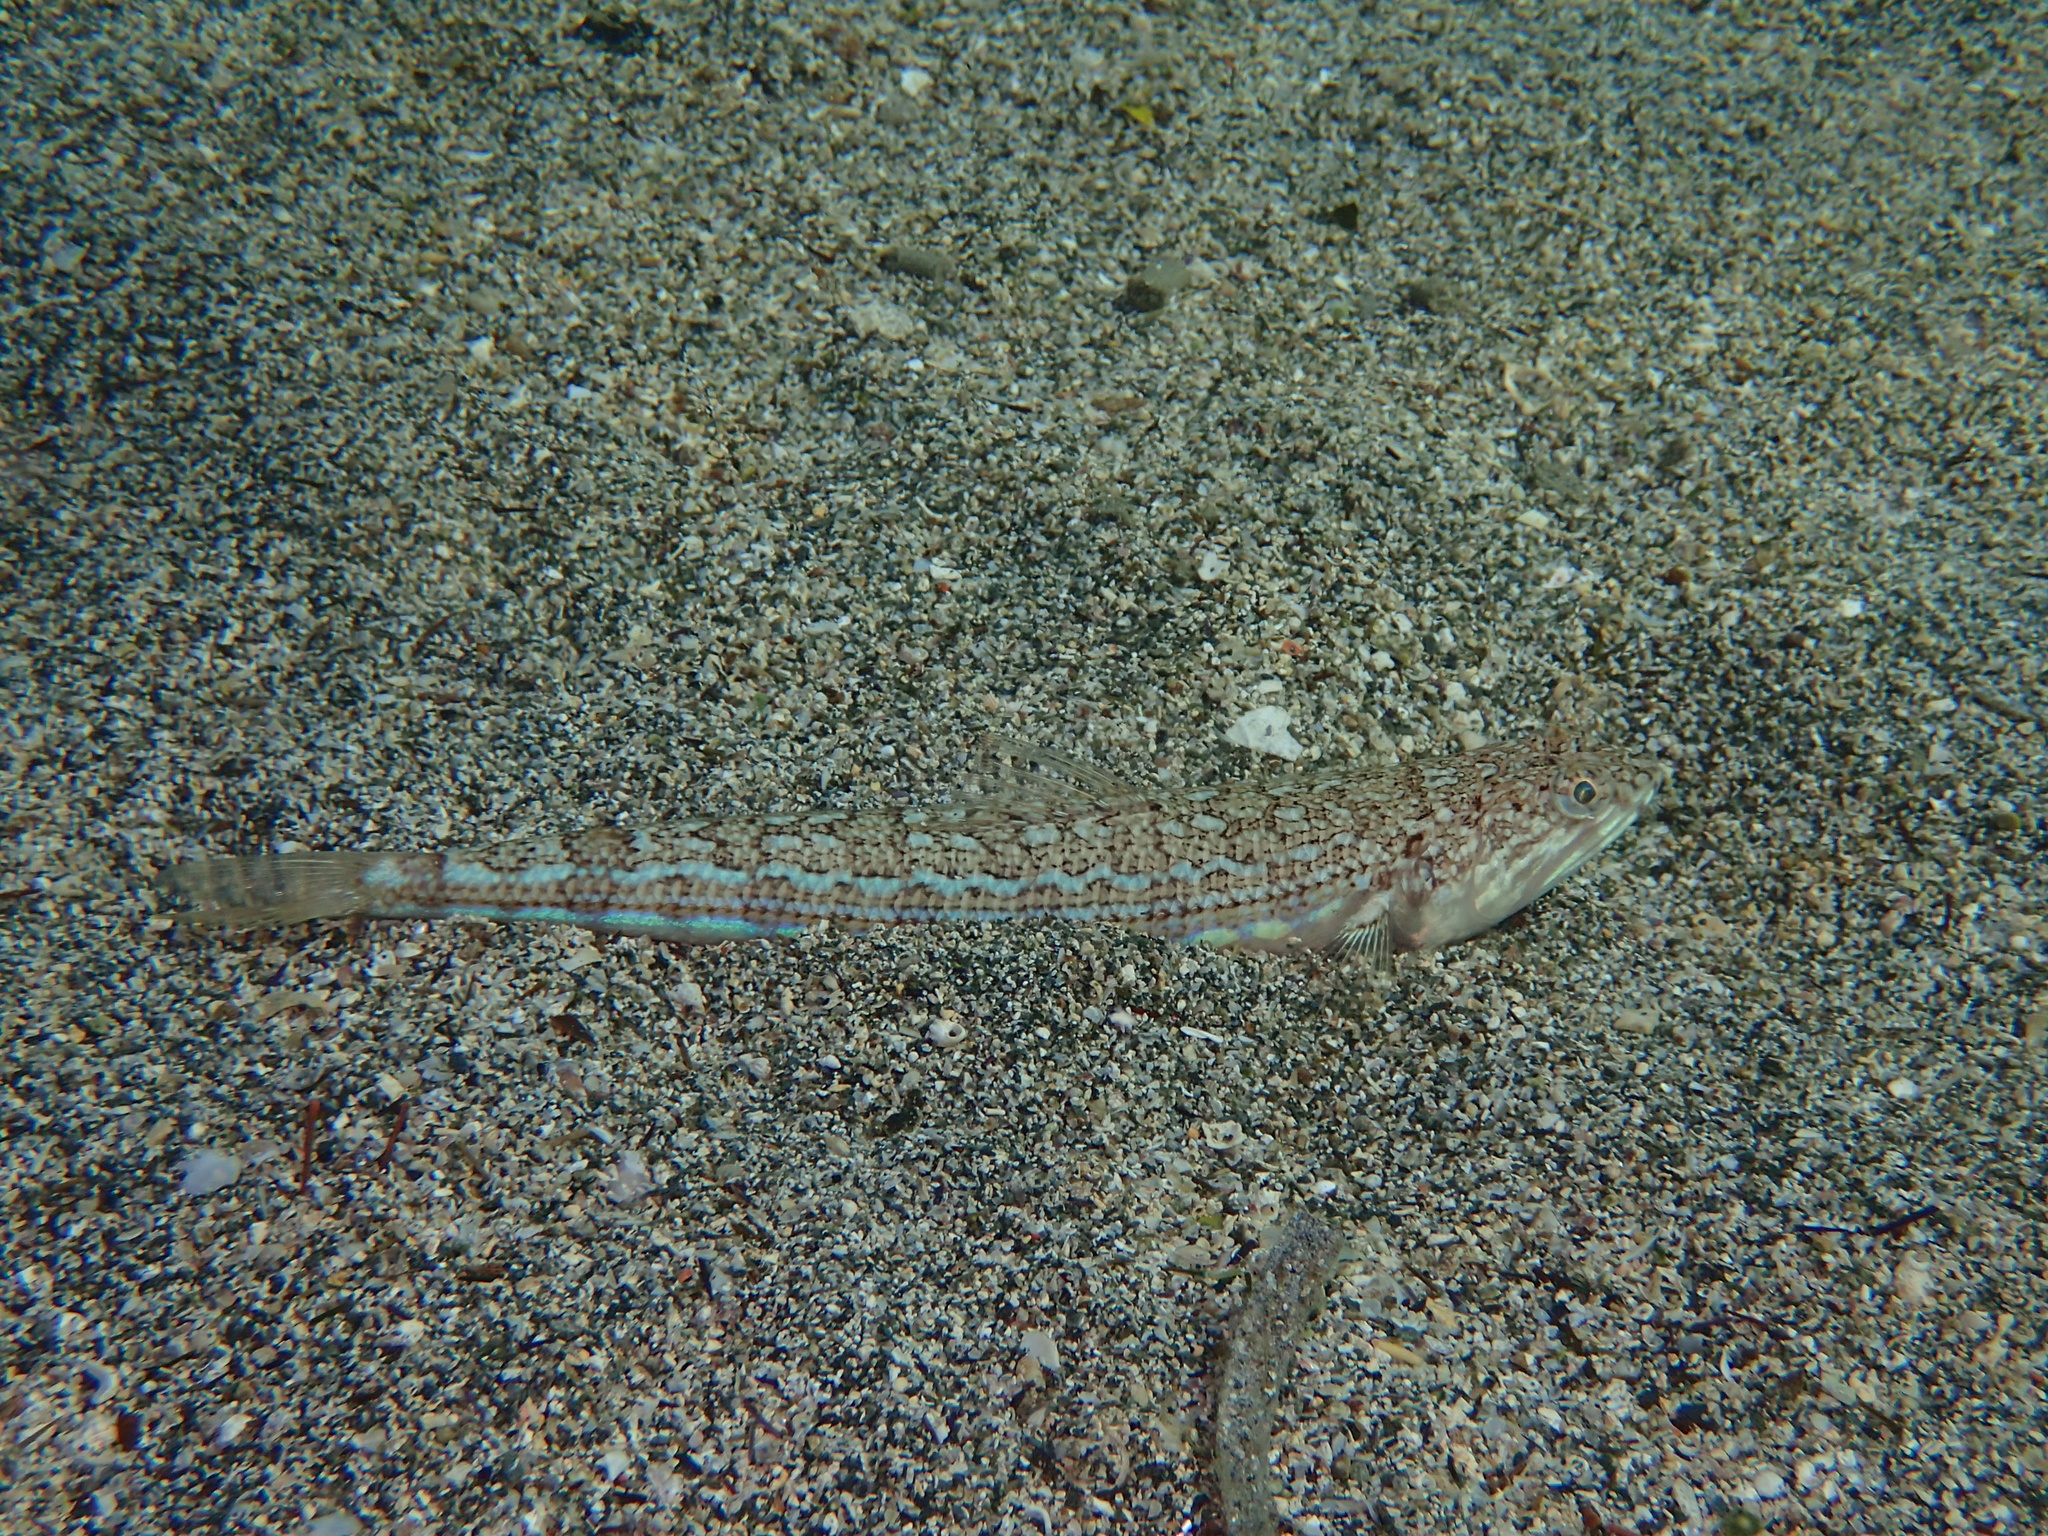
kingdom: Animalia
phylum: Chordata
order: Aulopiformes
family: Synodontidae
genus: Synodus
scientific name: Synodus saurus
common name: Atlantic lizardfish
